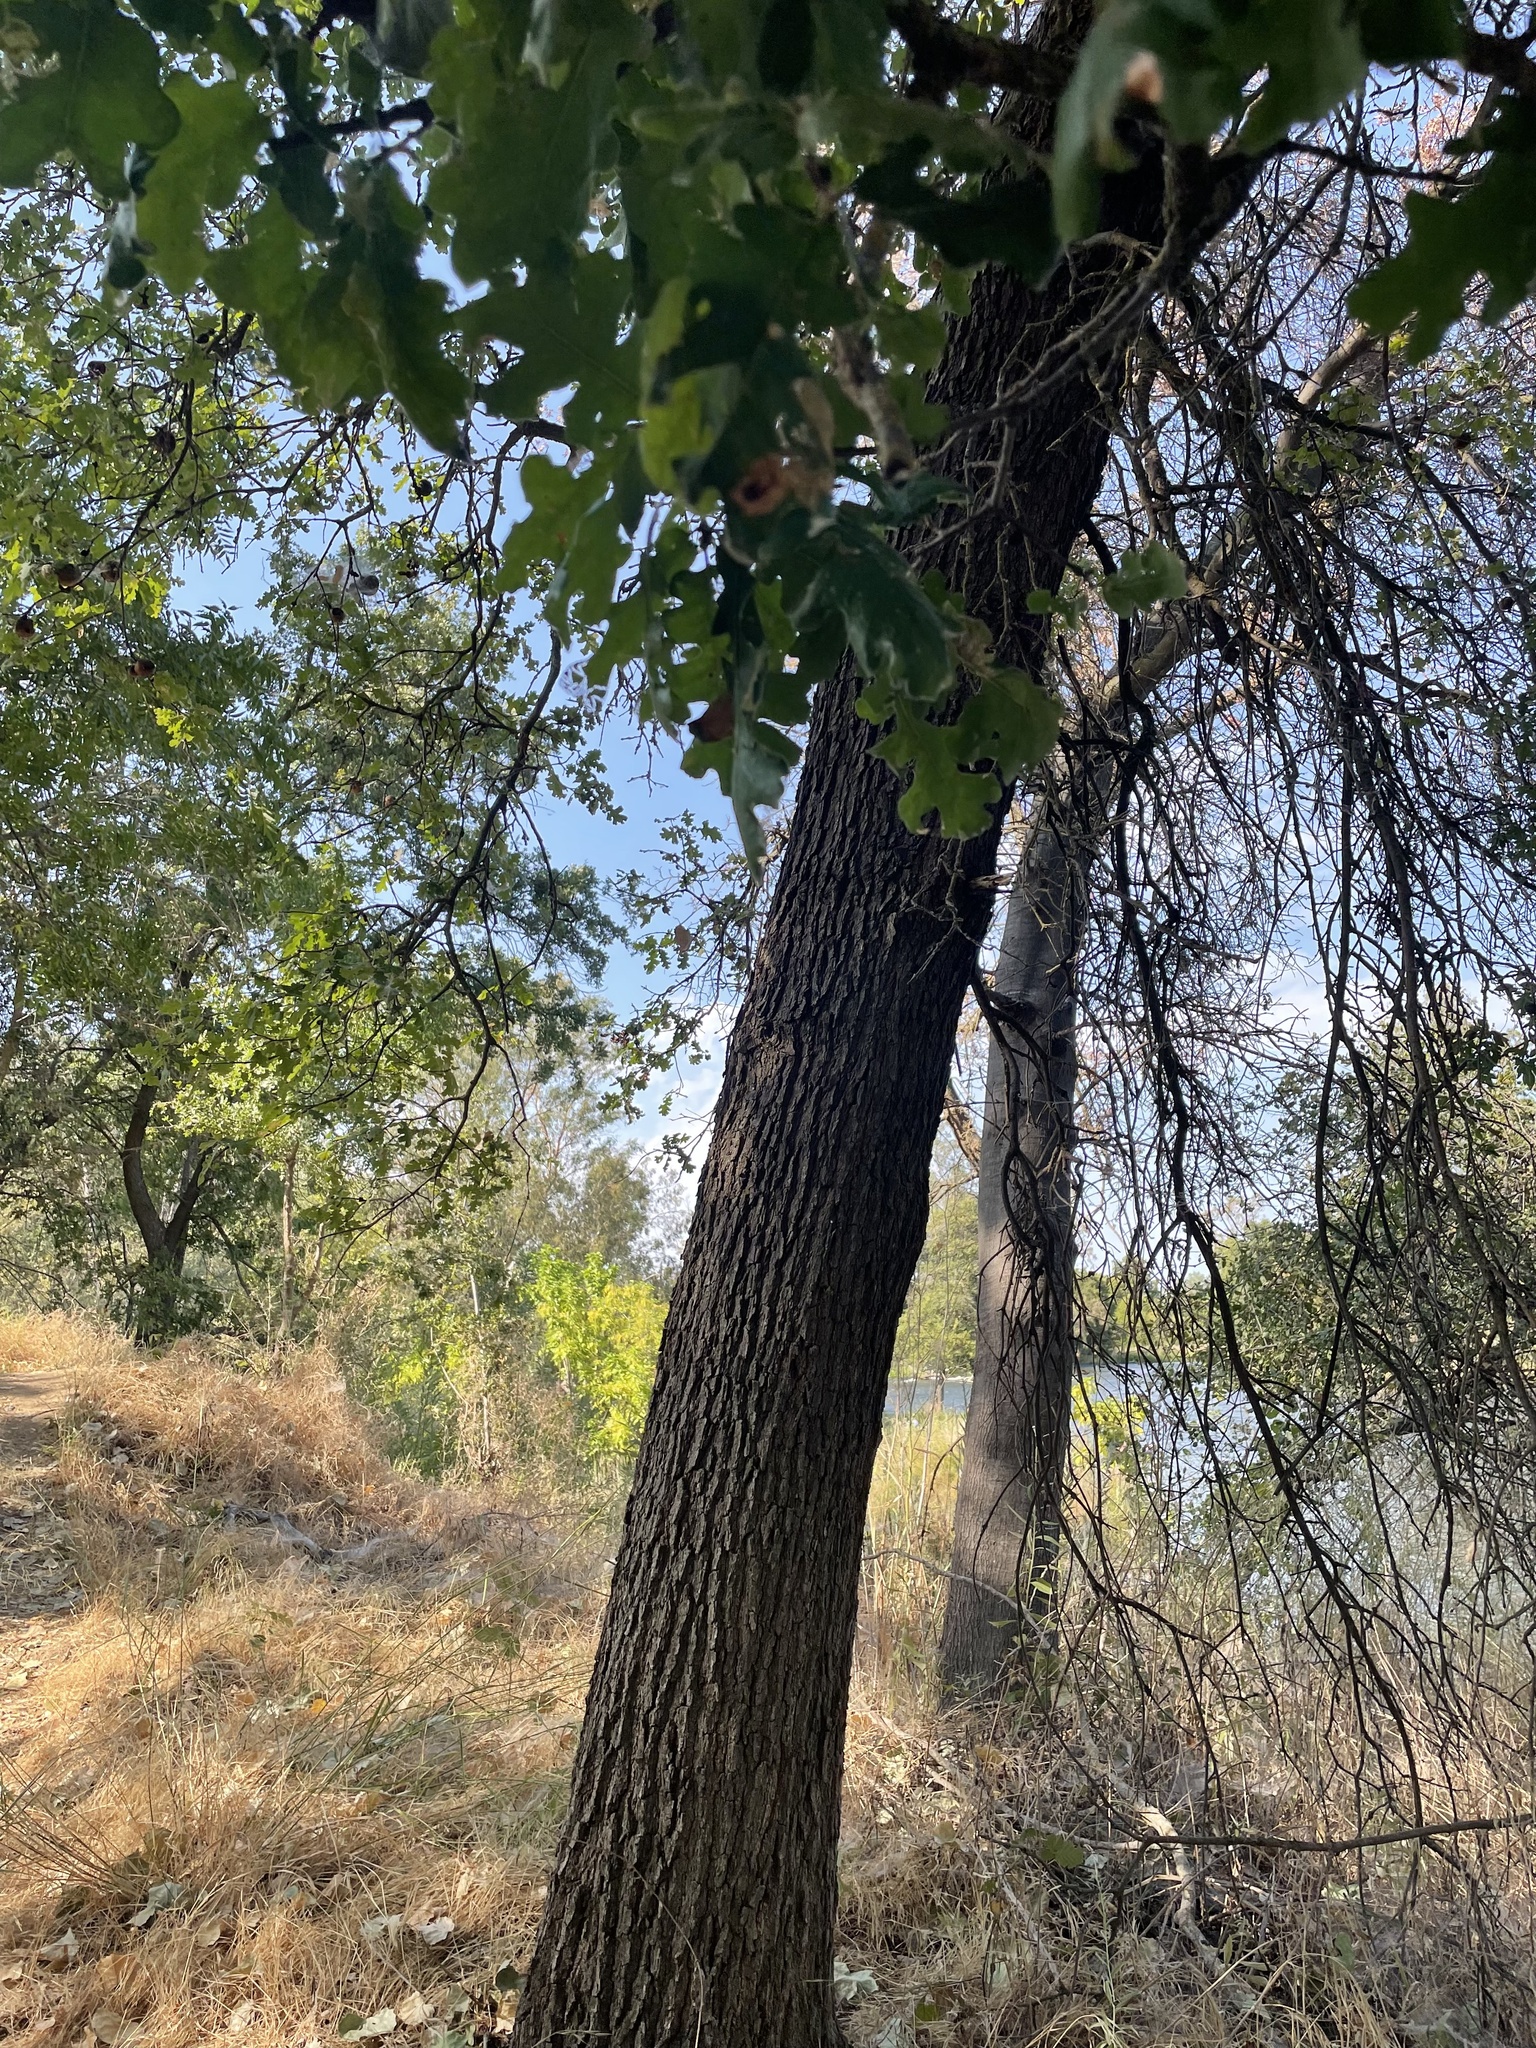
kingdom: Plantae
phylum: Tracheophyta
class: Magnoliopsida
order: Fagales
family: Fagaceae
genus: Quercus
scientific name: Quercus lobata
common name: Valley oak
